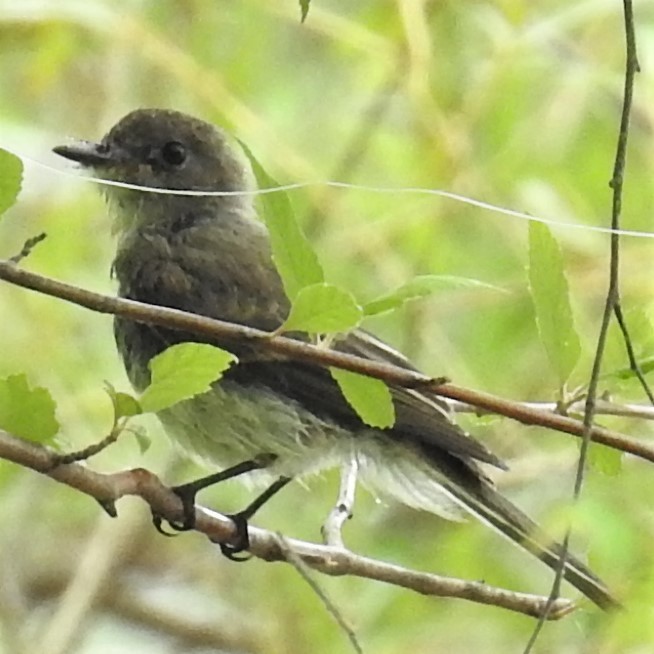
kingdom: Animalia
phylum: Chordata
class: Aves
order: Passeriformes
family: Tyrannidae
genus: Sayornis
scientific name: Sayornis phoebe
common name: Eastern phoebe
